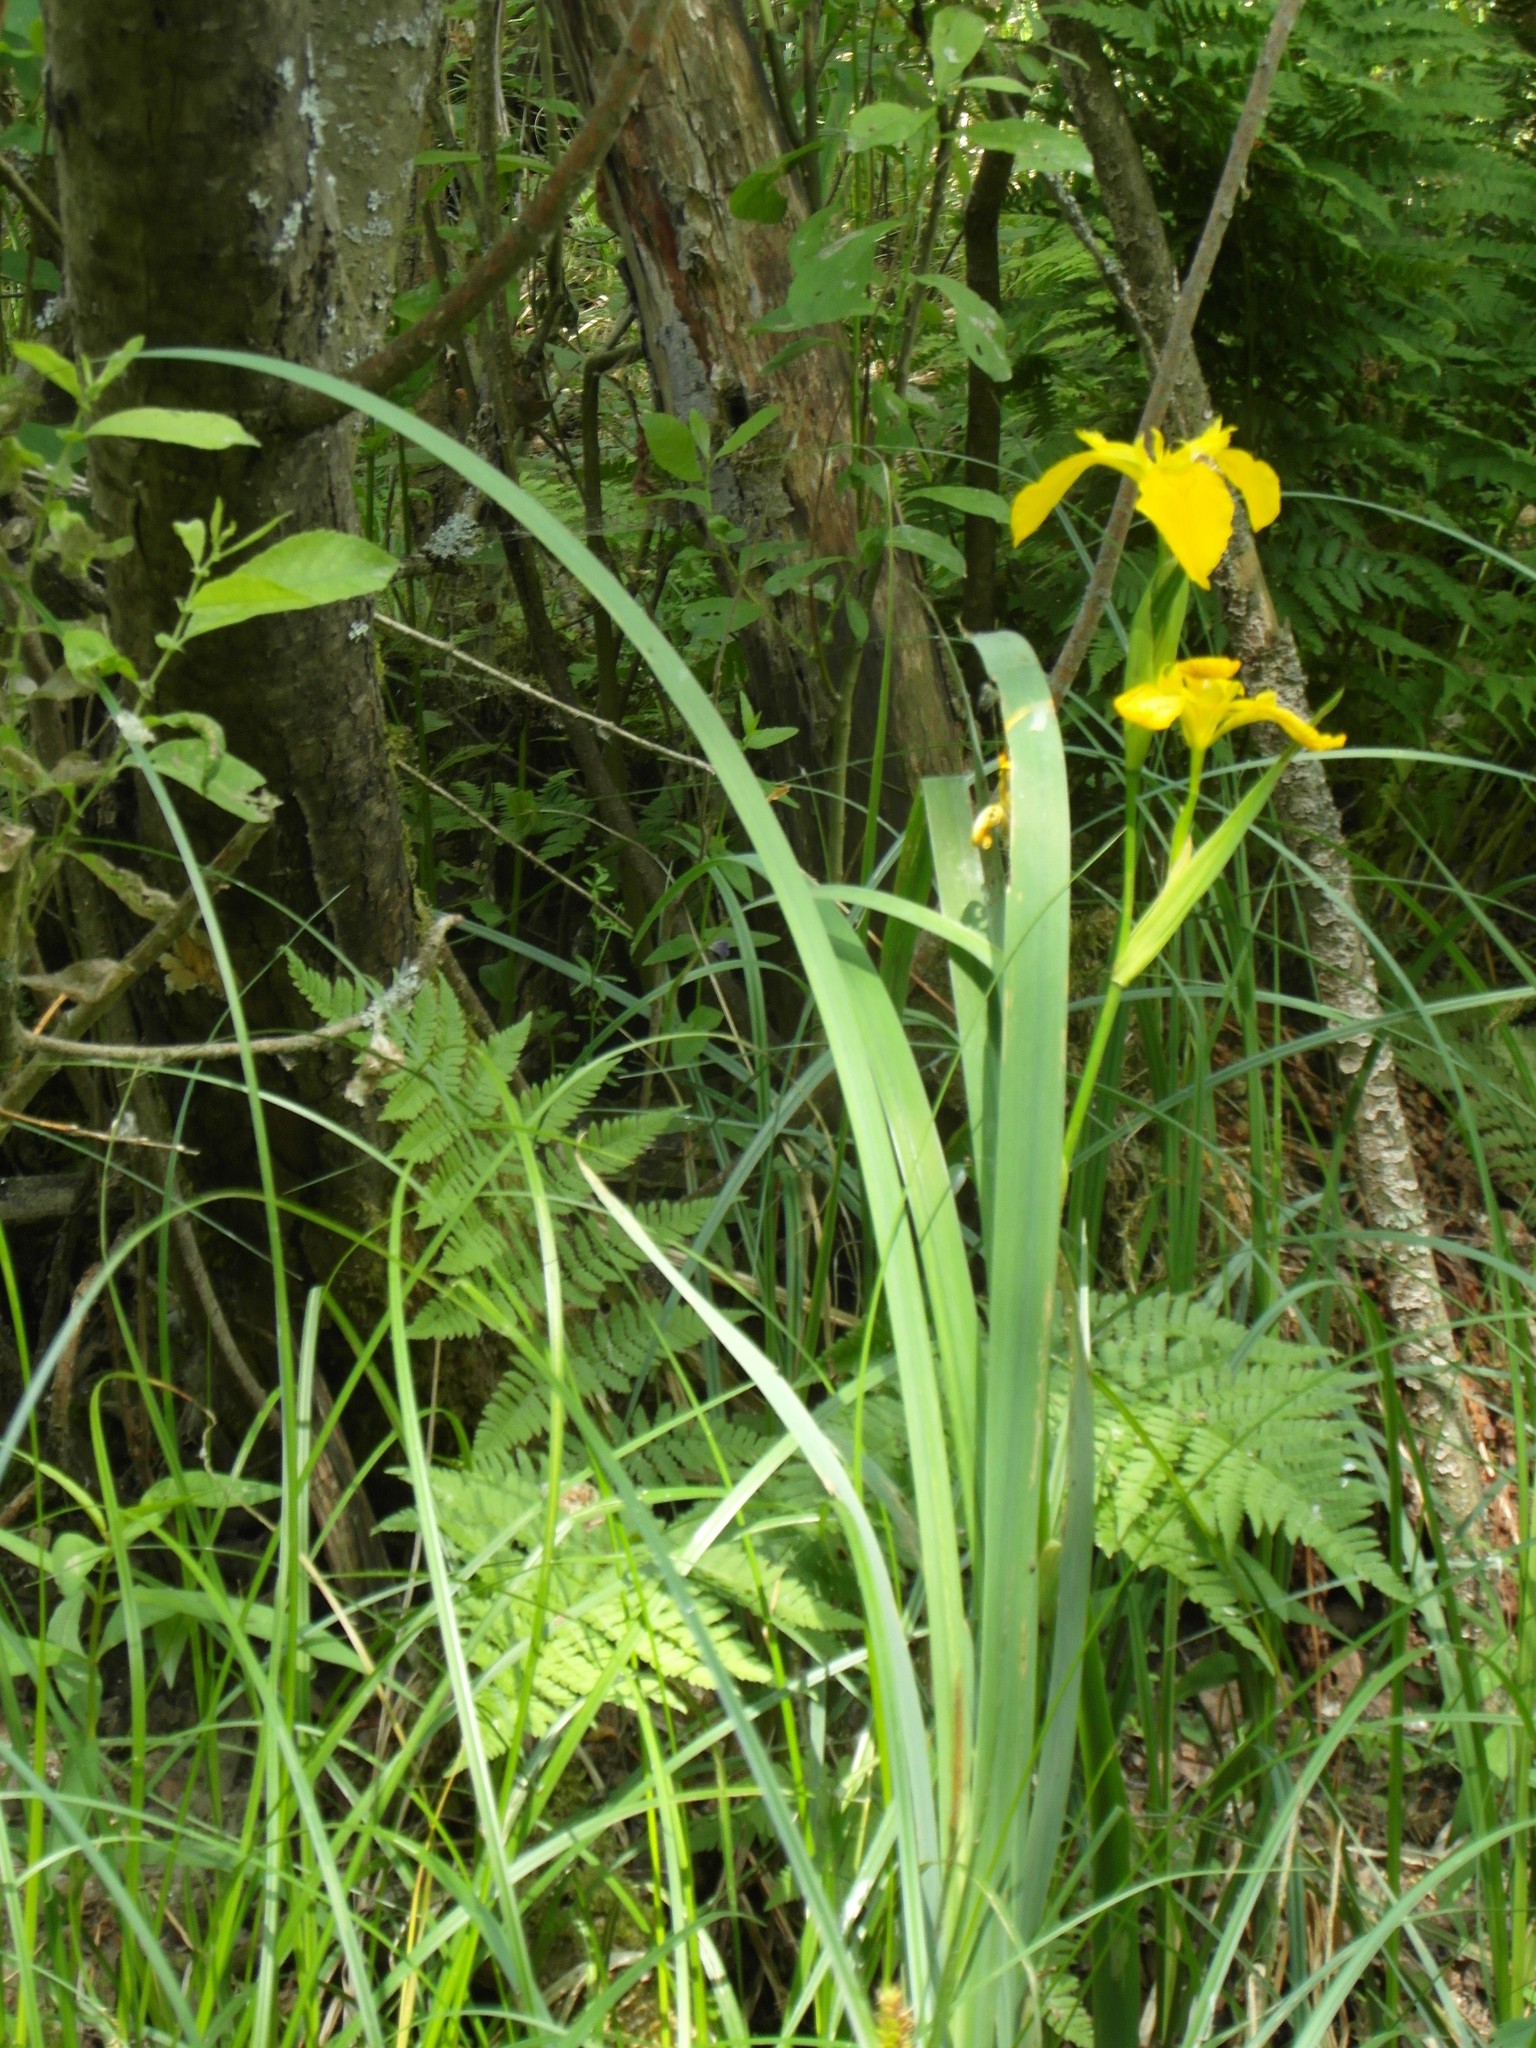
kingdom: Plantae
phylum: Tracheophyta
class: Liliopsida
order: Asparagales
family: Iridaceae
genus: Iris
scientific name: Iris pseudacorus
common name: Yellow flag
